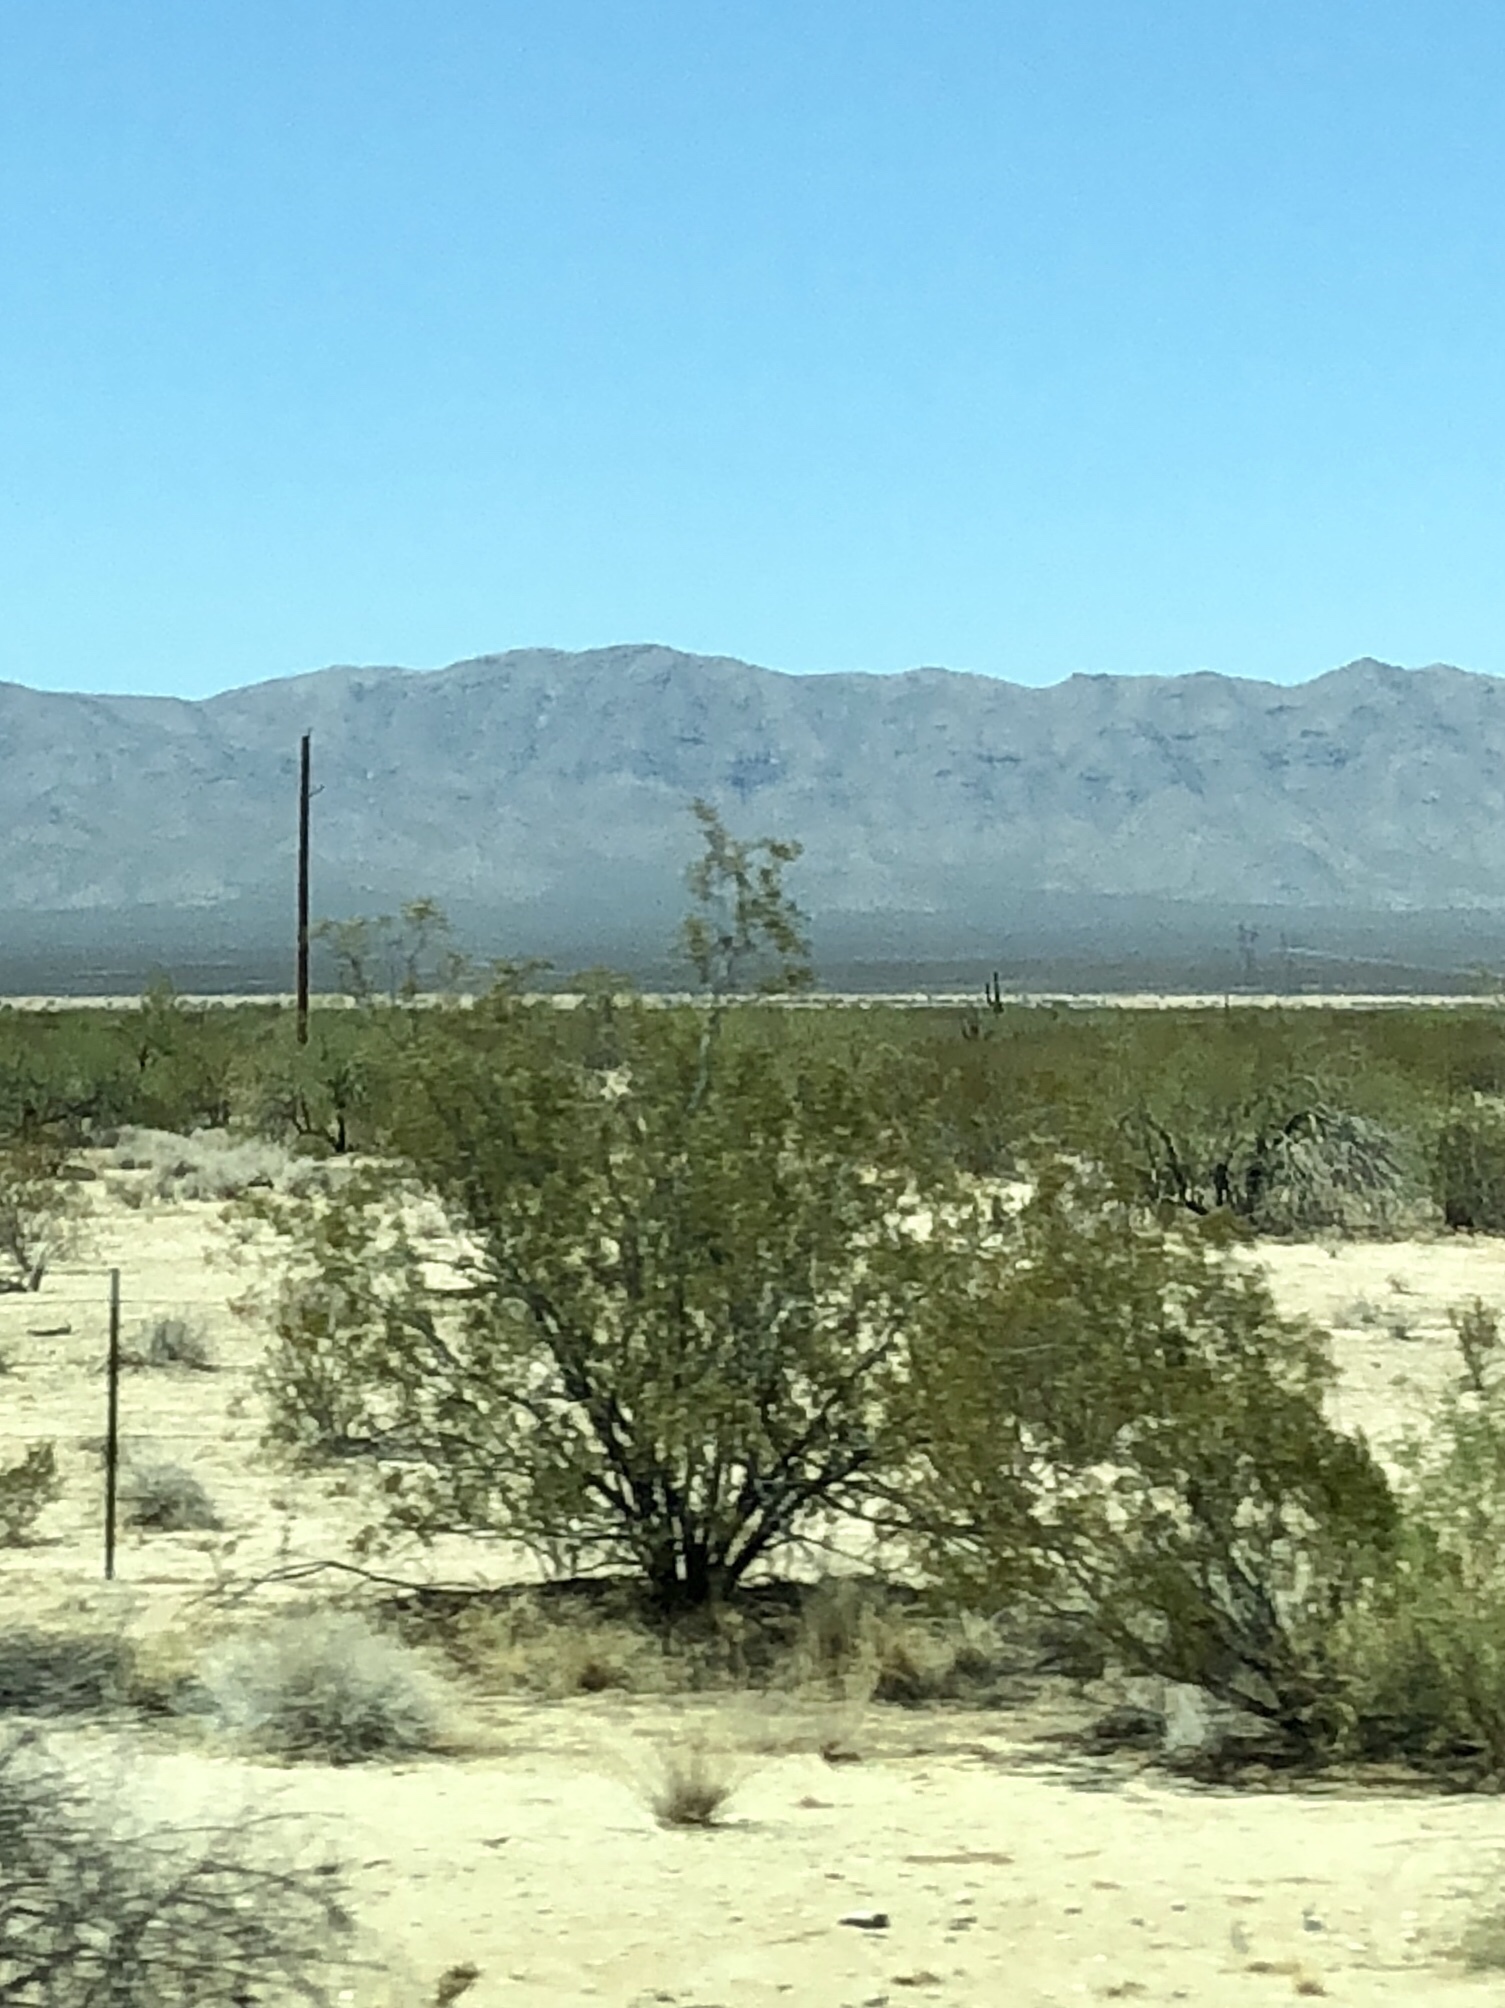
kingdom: Plantae
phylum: Tracheophyta
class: Magnoliopsida
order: Zygophyllales
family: Zygophyllaceae
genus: Larrea
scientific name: Larrea tridentata
